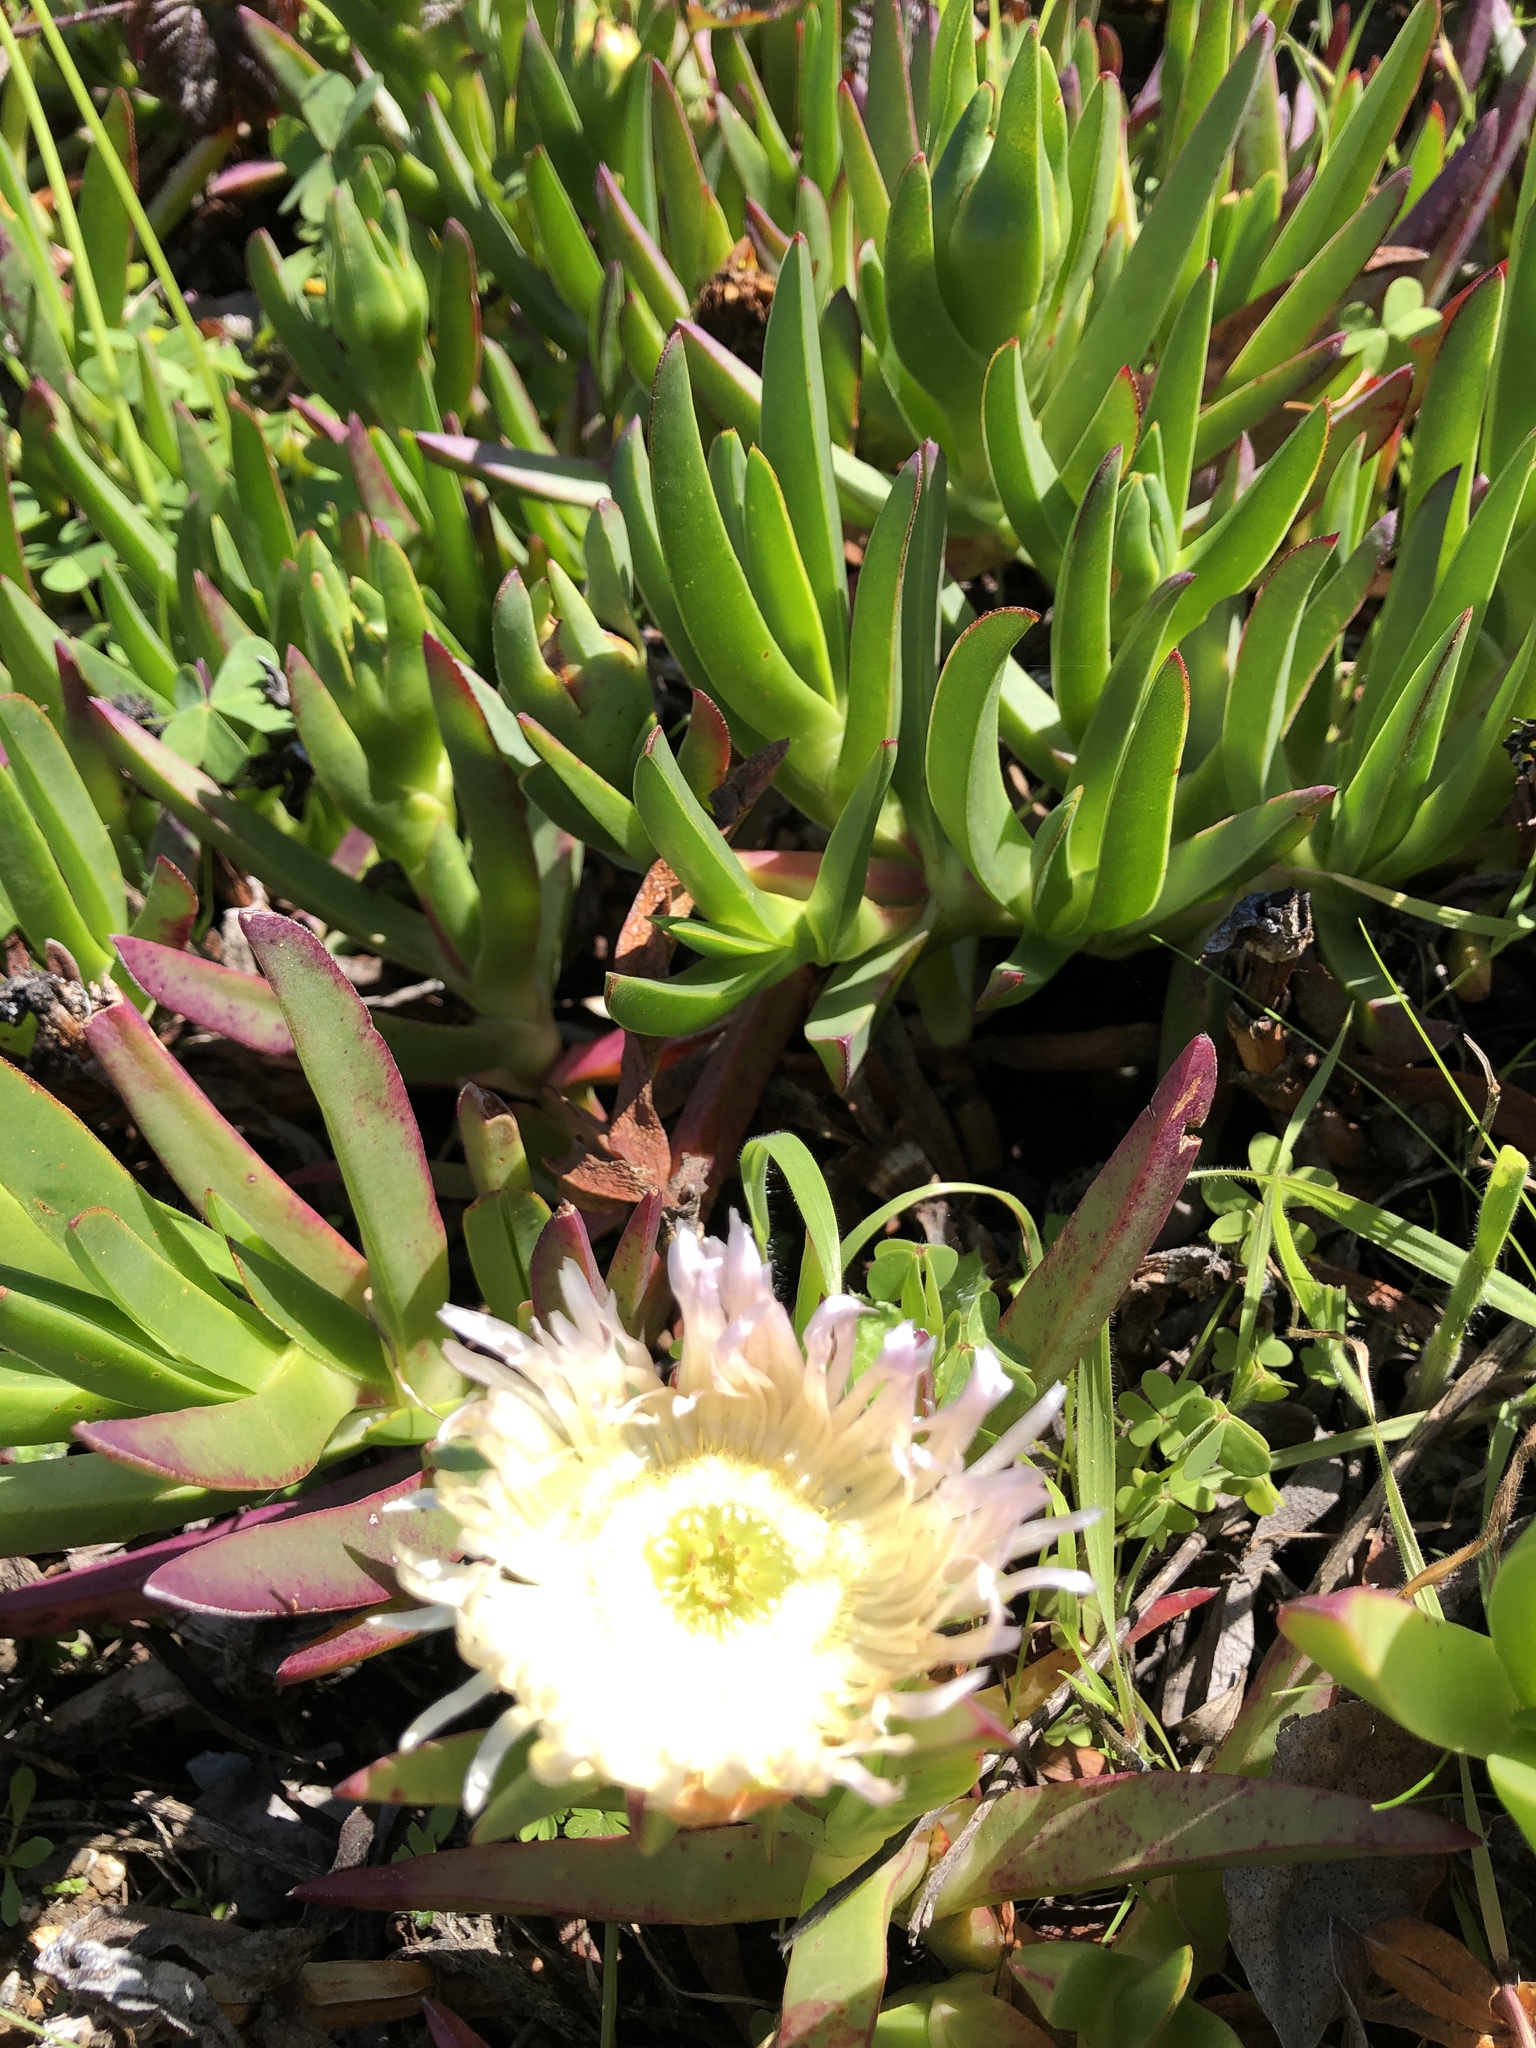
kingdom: Plantae
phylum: Tracheophyta
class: Magnoliopsida
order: Caryophyllales
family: Aizoaceae
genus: Carpobrotus
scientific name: Carpobrotus edulis
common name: Hottentot-fig
